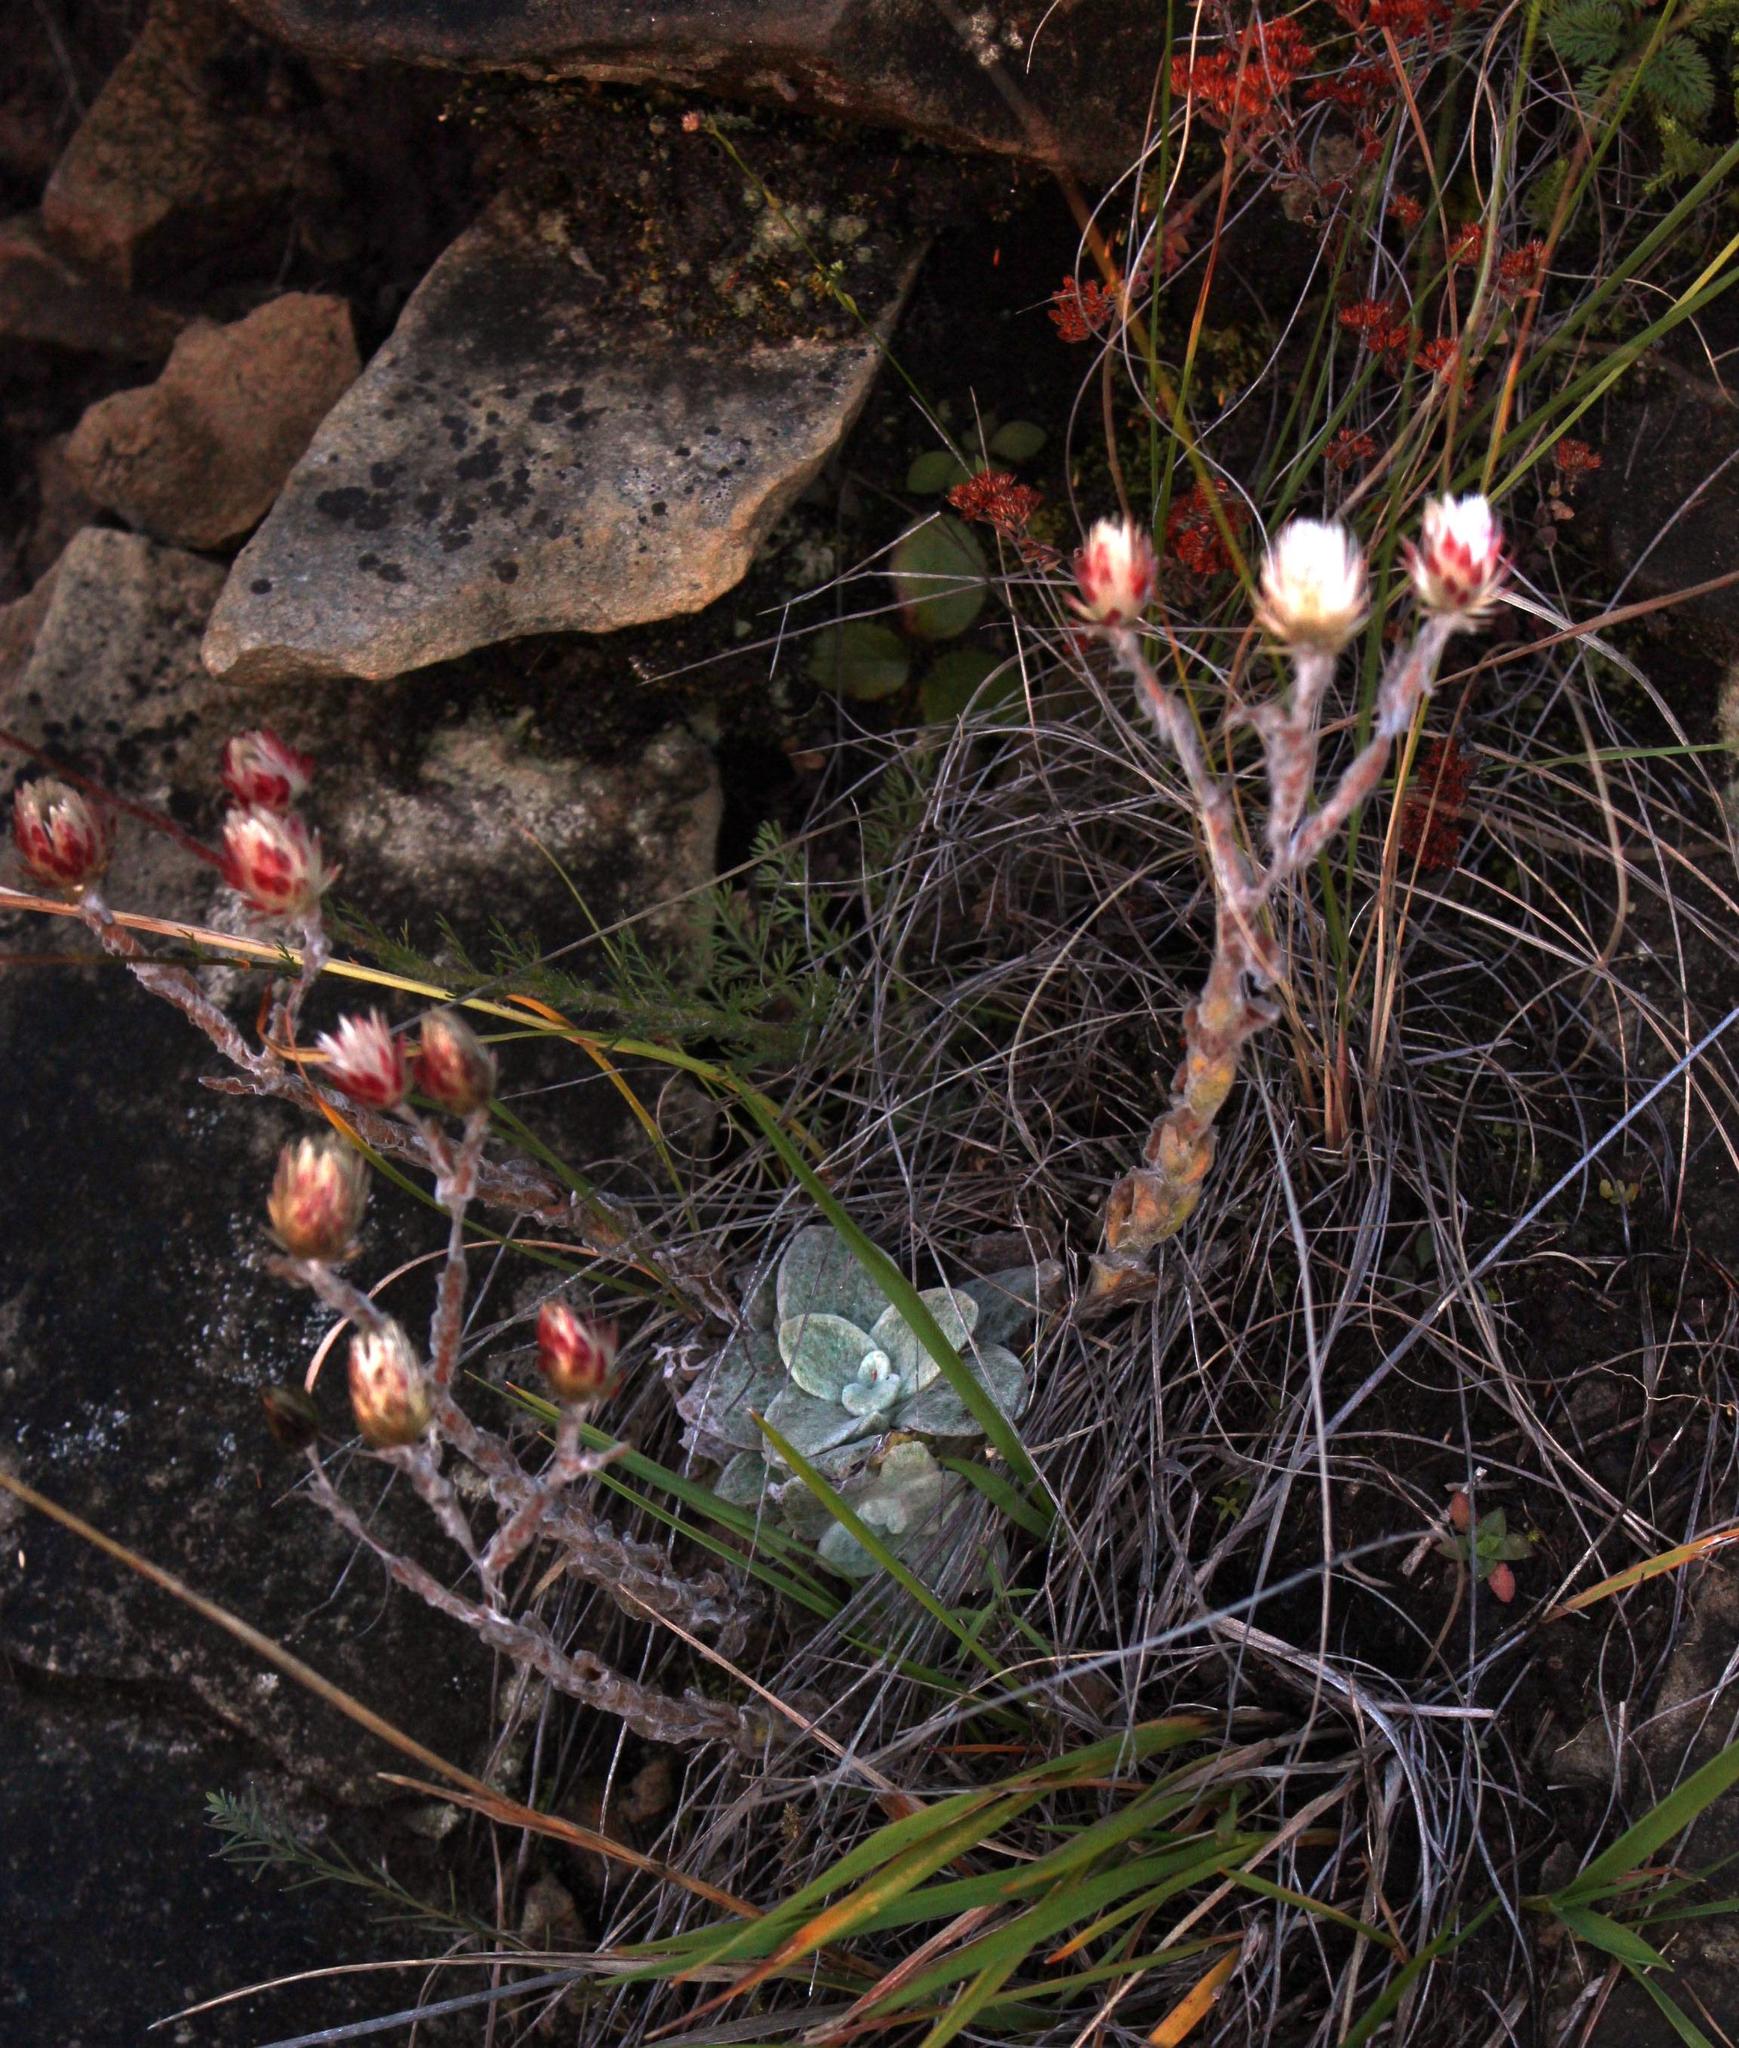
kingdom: Plantae
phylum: Tracheophyta
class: Magnoliopsida
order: Asterales
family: Asteraceae
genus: Helichrysum
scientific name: Helichrysum ecklonis
